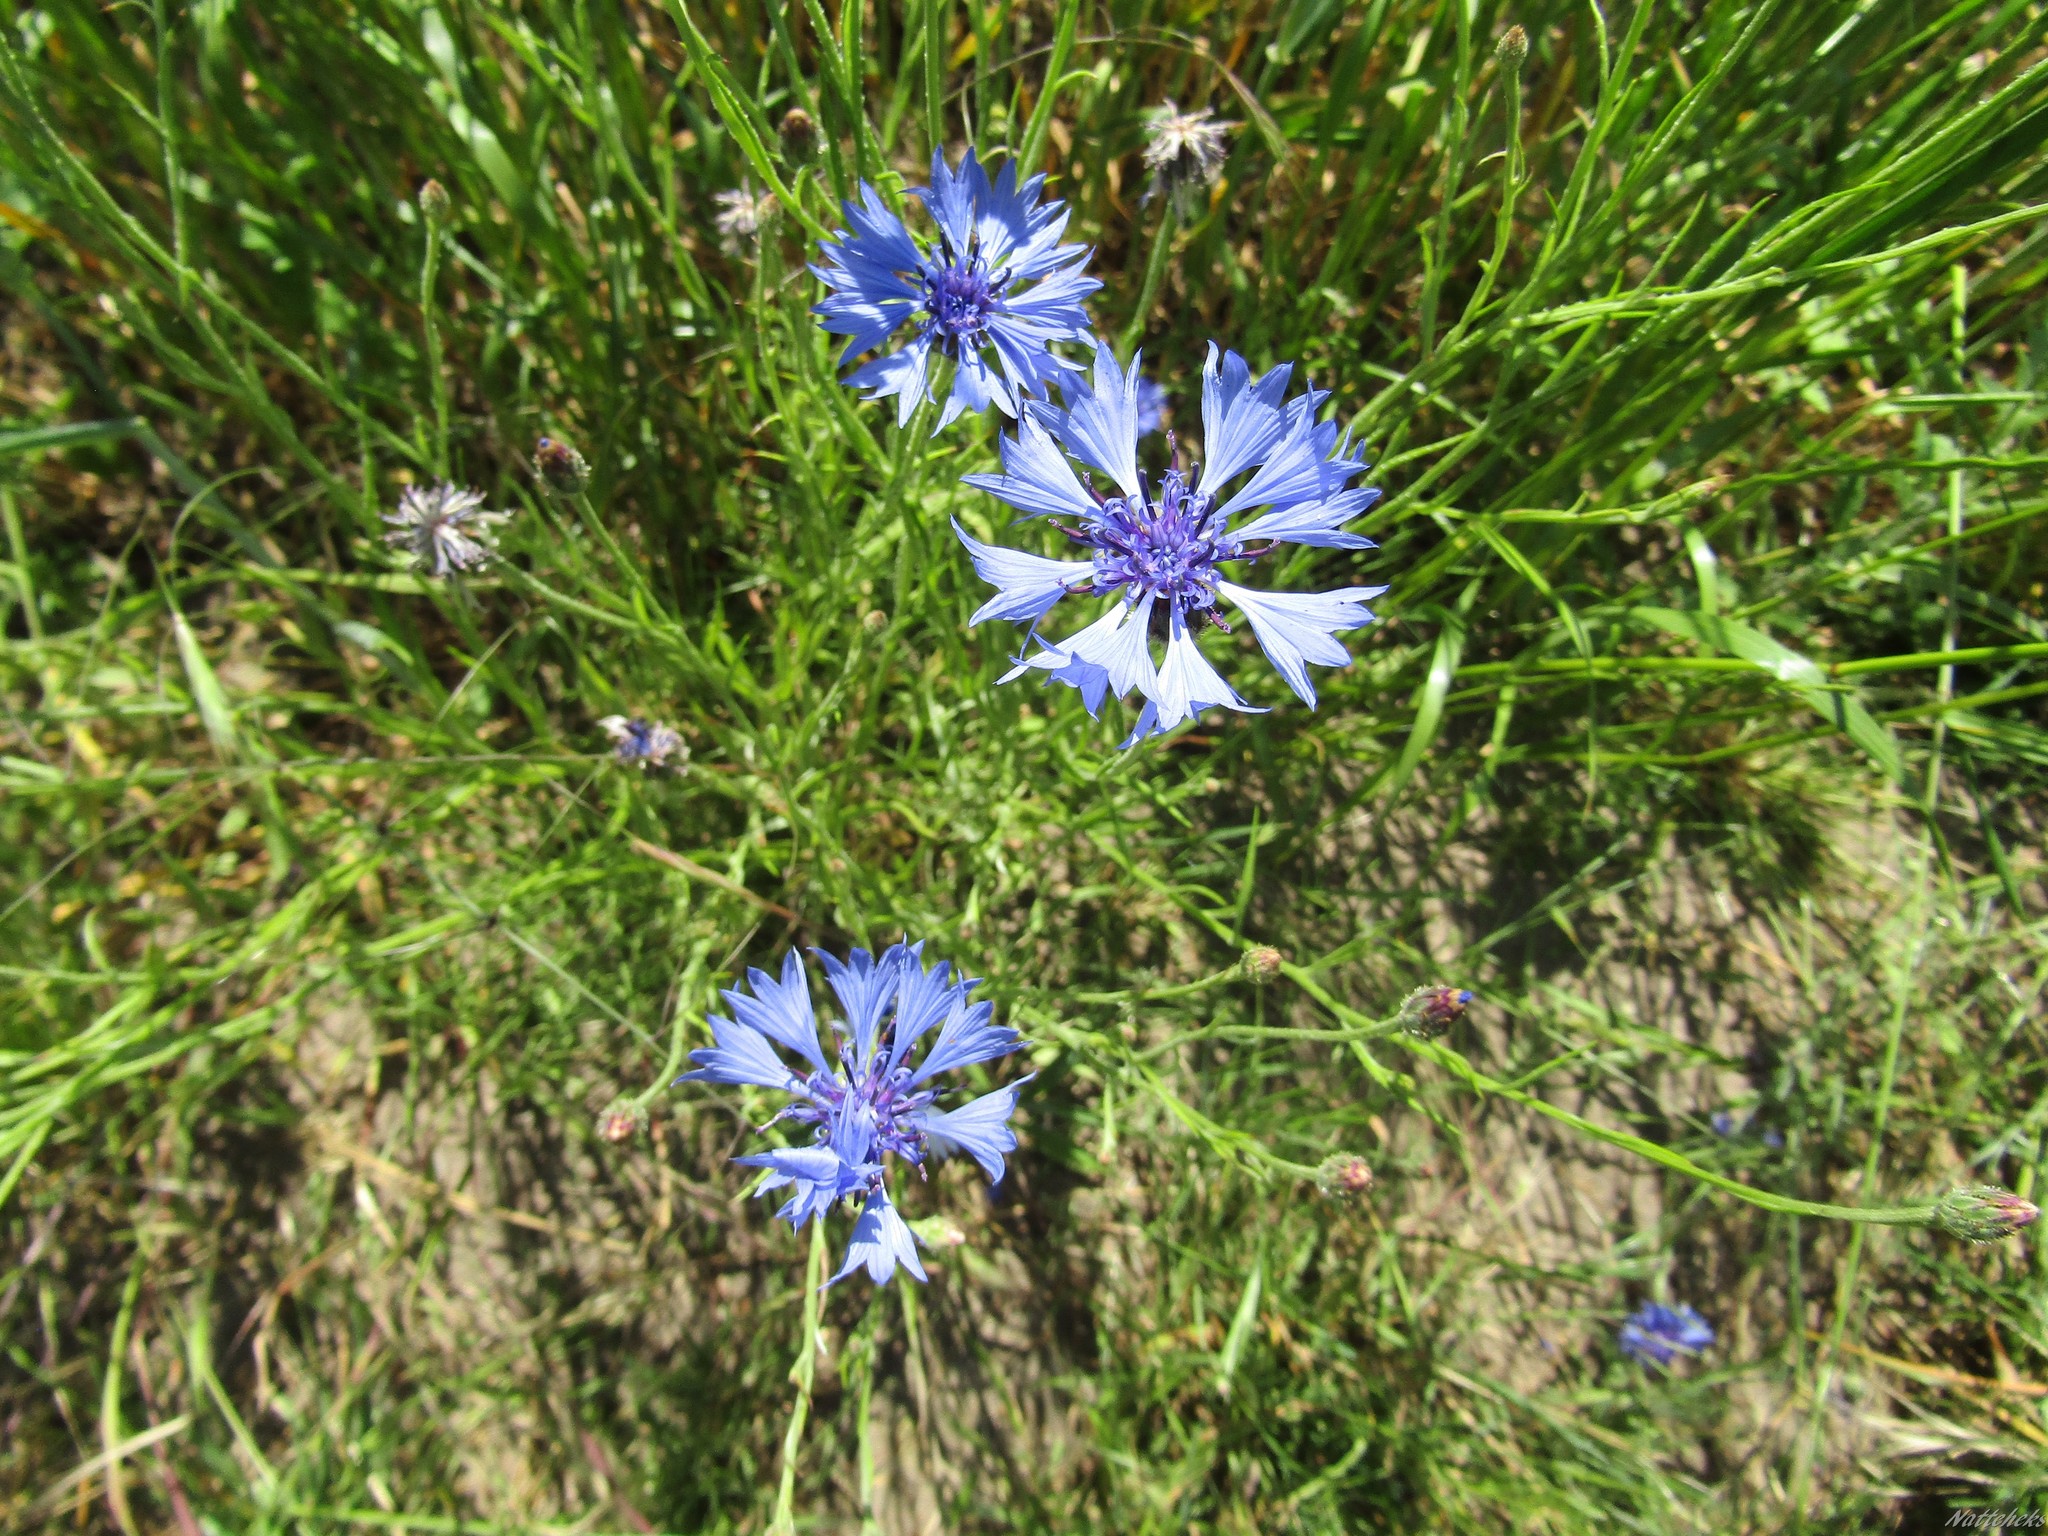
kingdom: Plantae
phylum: Tracheophyta
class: Magnoliopsida
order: Asterales
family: Asteraceae
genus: Centaurea
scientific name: Centaurea cyanus
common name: Cornflower
